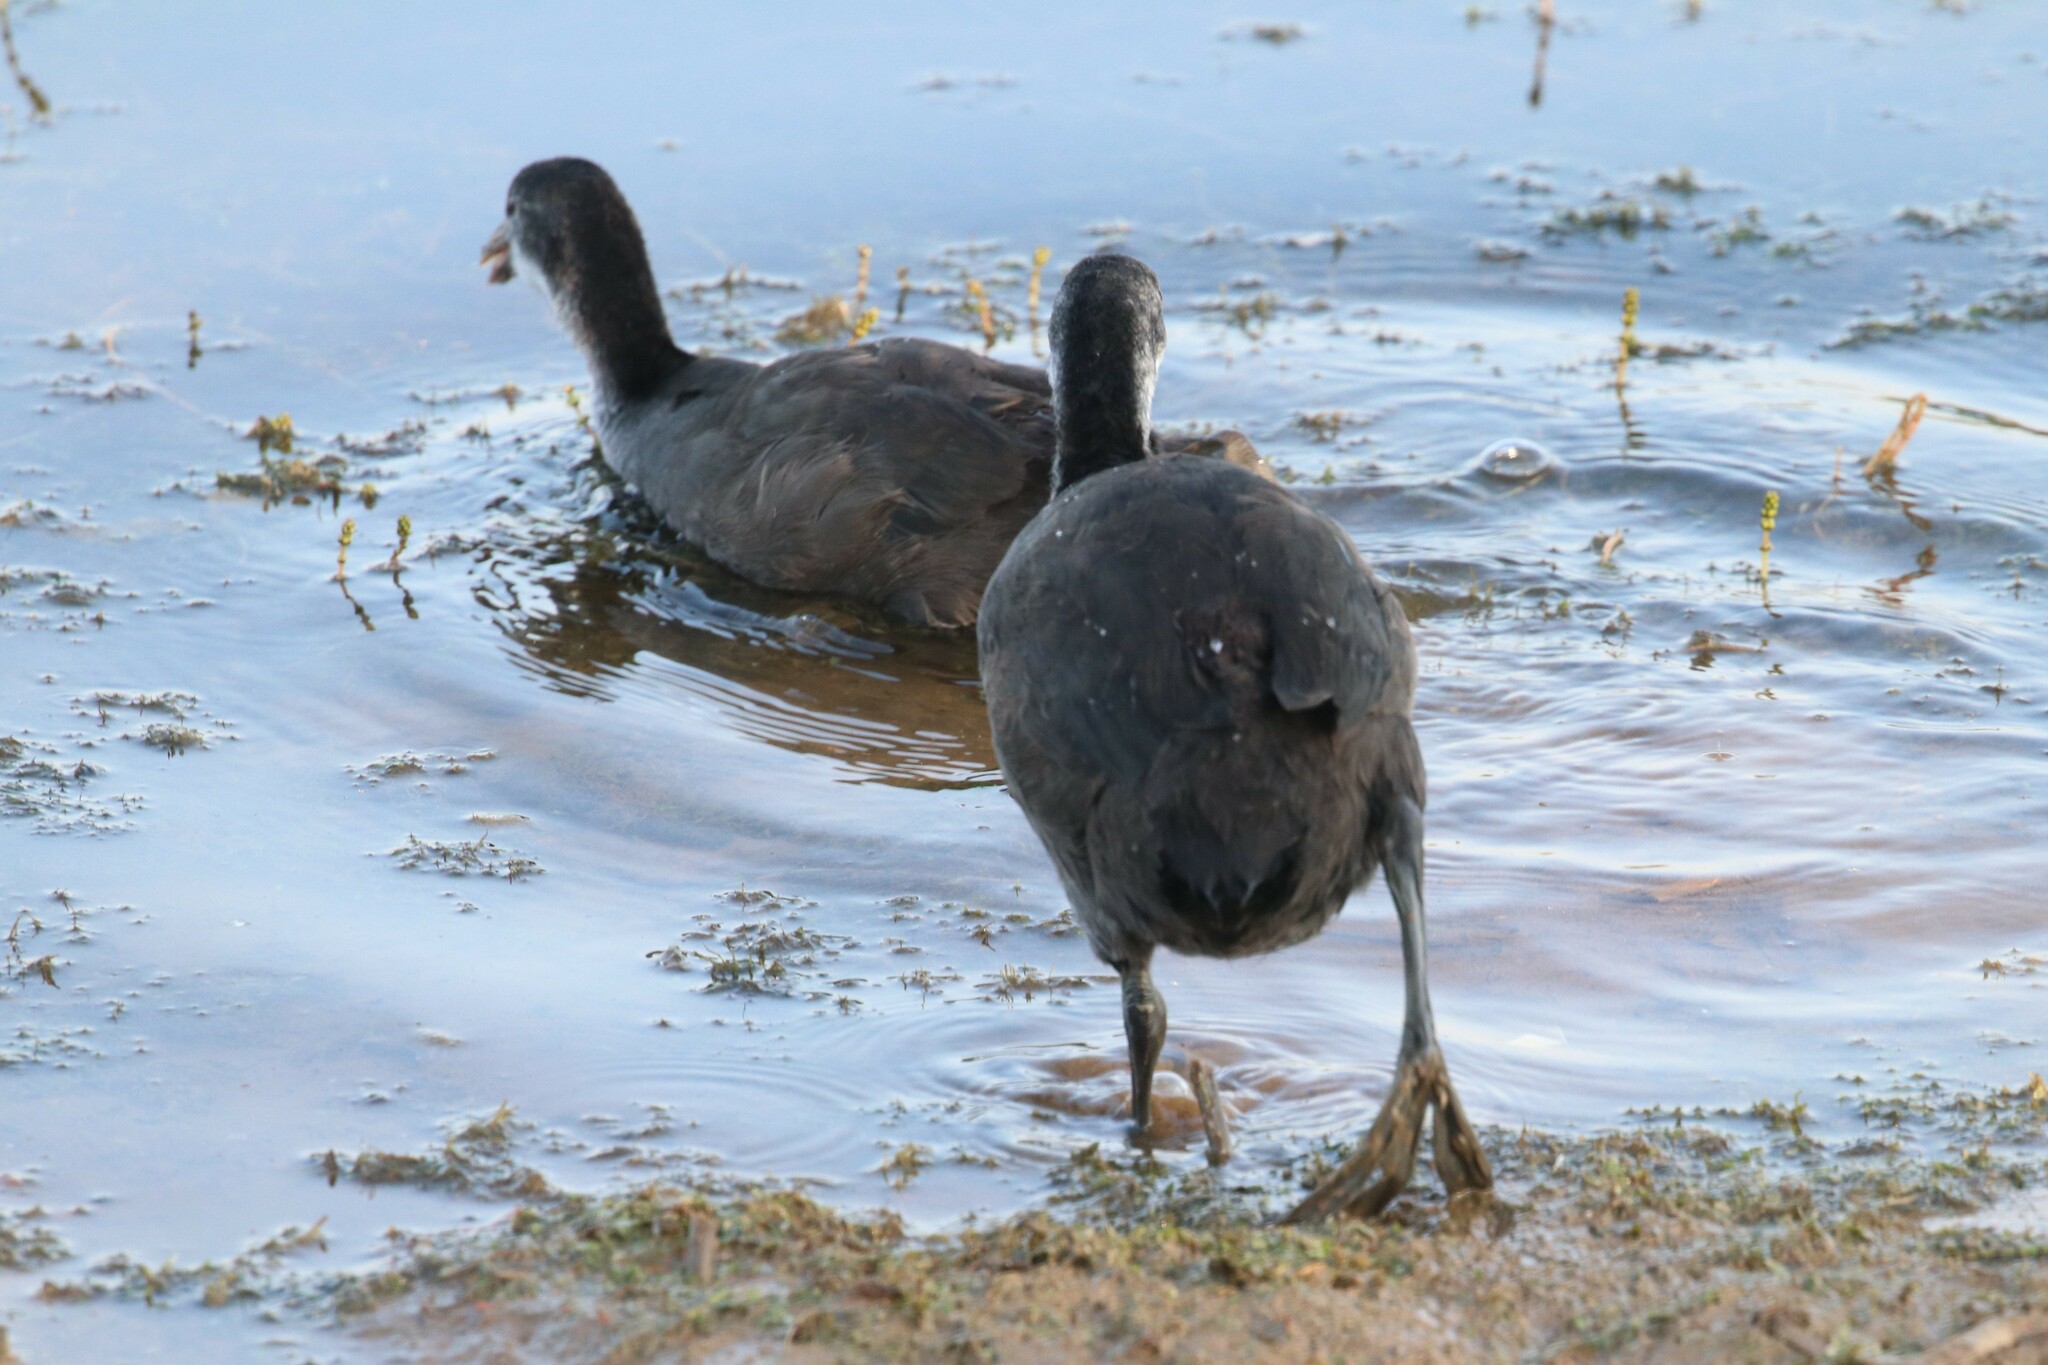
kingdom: Animalia
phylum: Chordata
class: Aves
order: Gruiformes
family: Rallidae
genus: Fulica
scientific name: Fulica atra
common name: Eurasian coot
